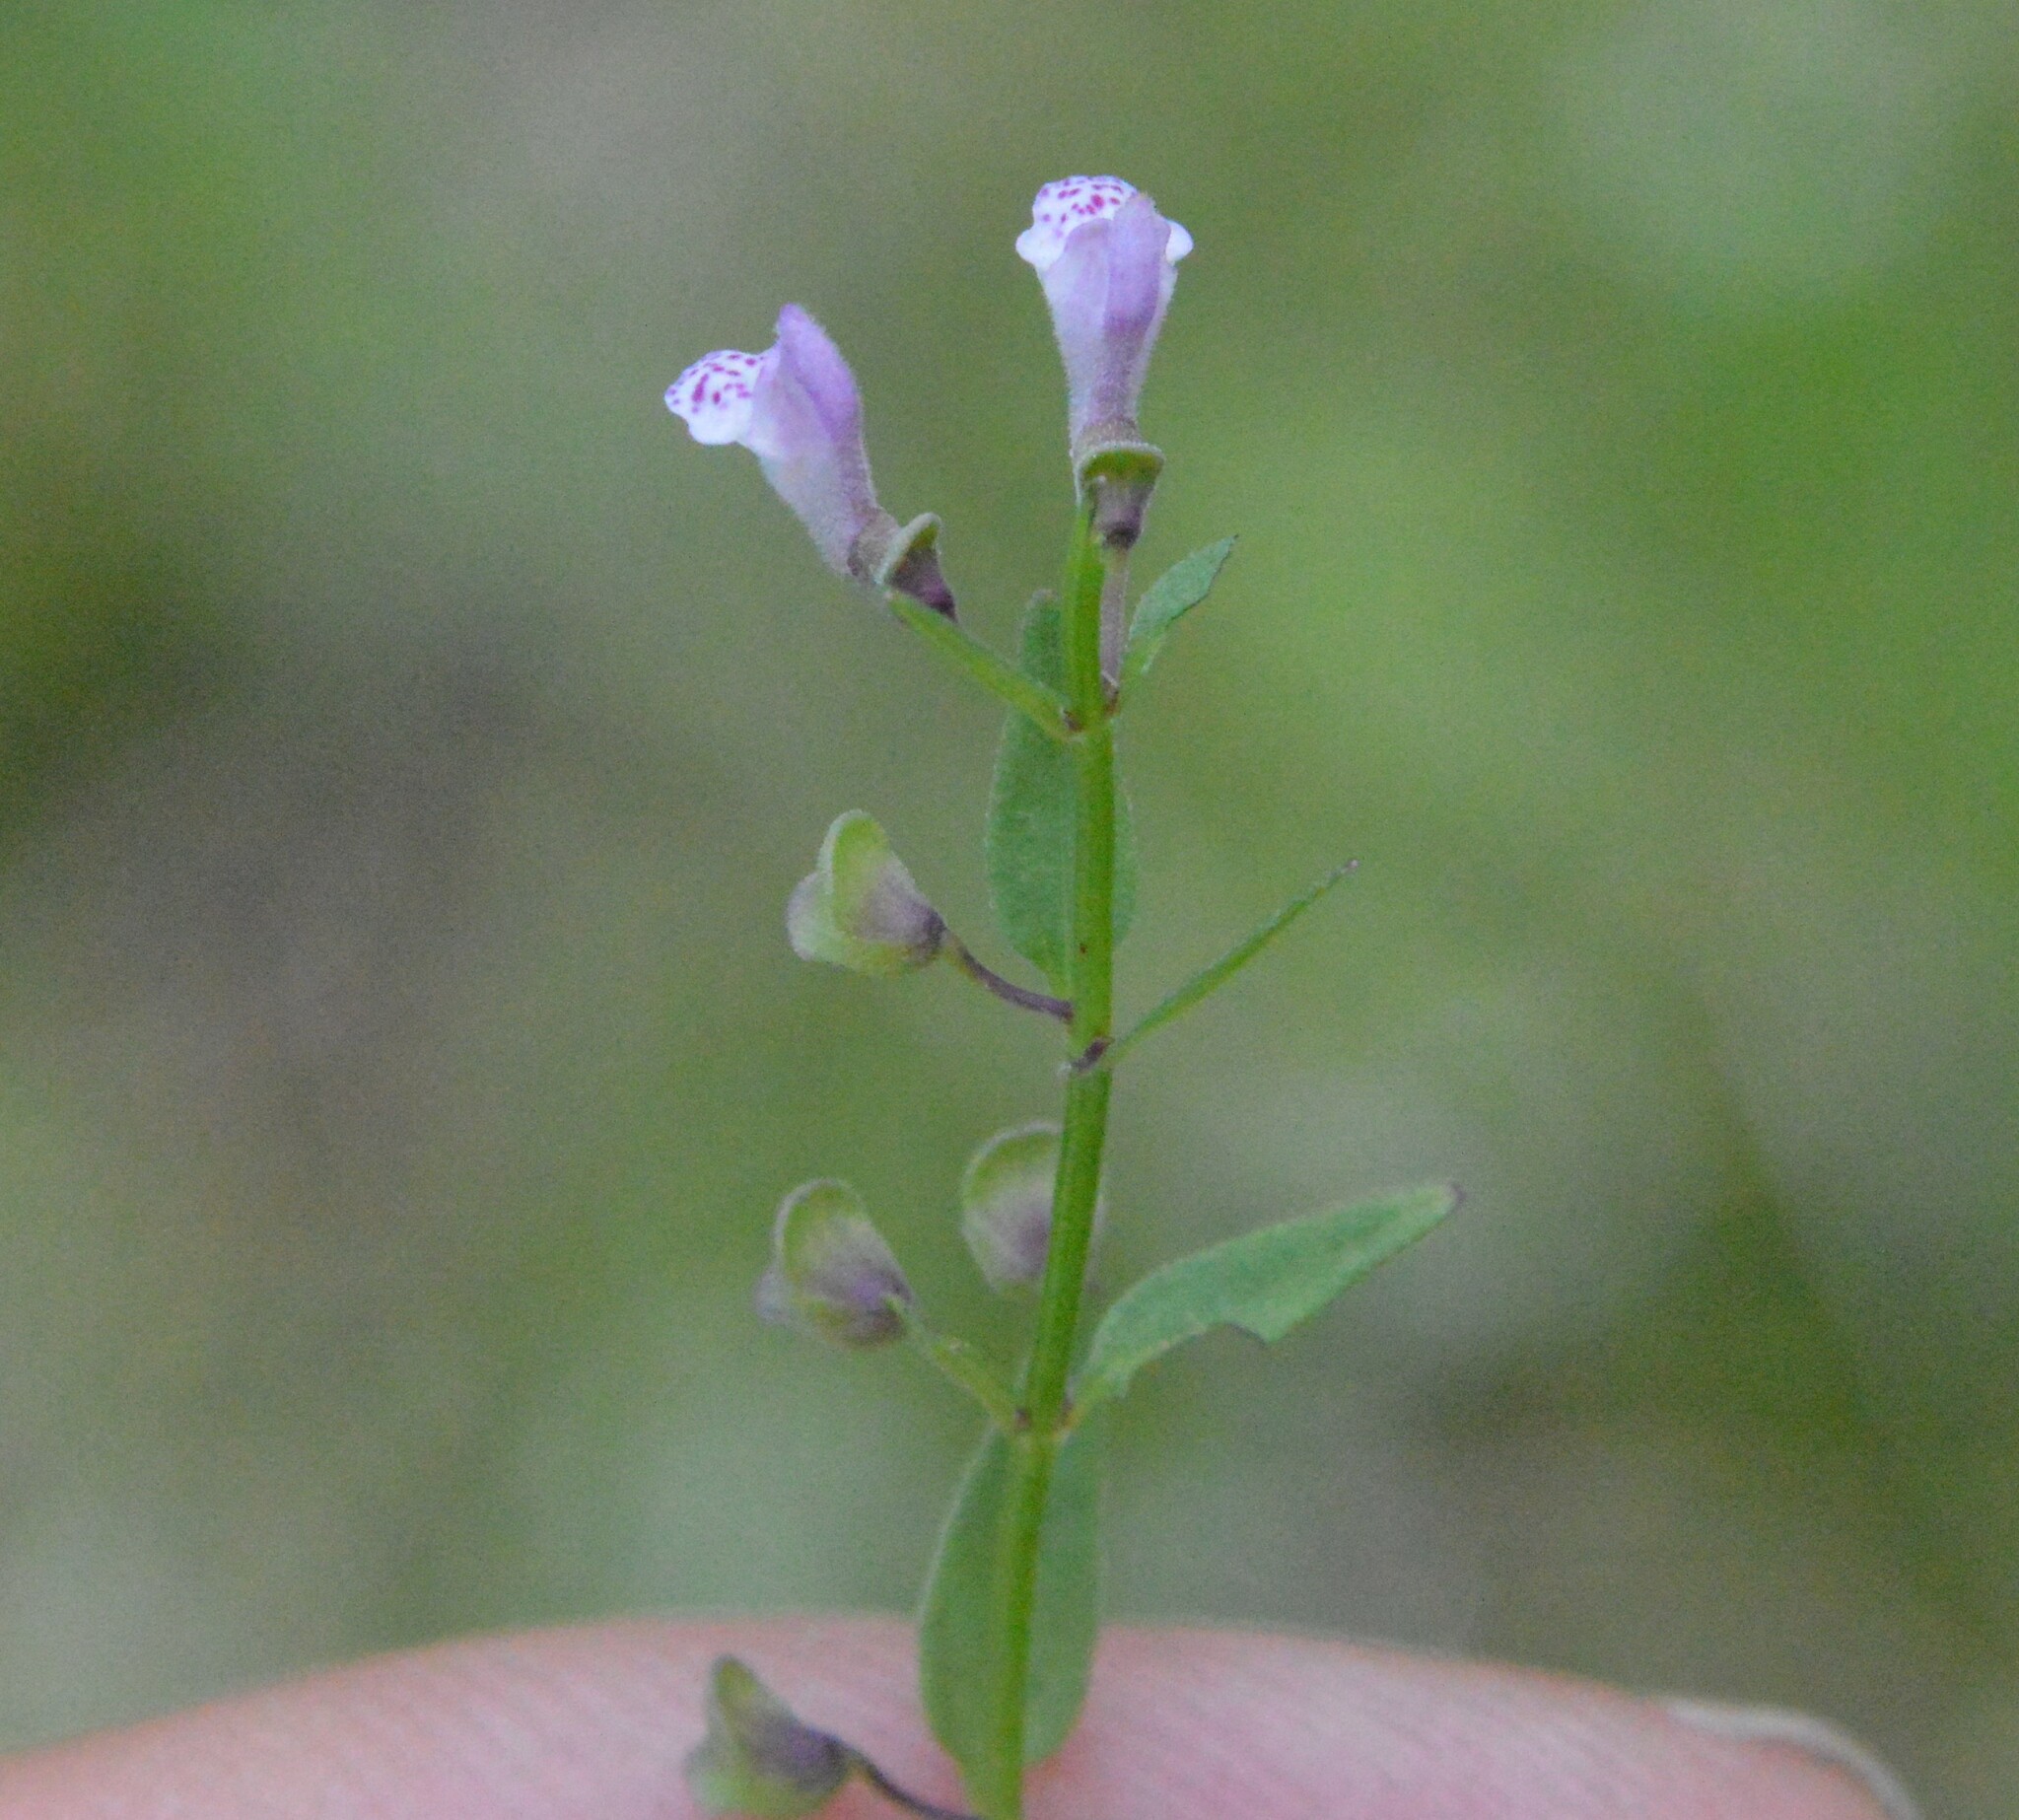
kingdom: Plantae
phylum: Tracheophyta
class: Magnoliopsida
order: Lamiales
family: Lamiaceae
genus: Scutellaria
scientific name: Scutellaria parvula
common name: Little scullcap
